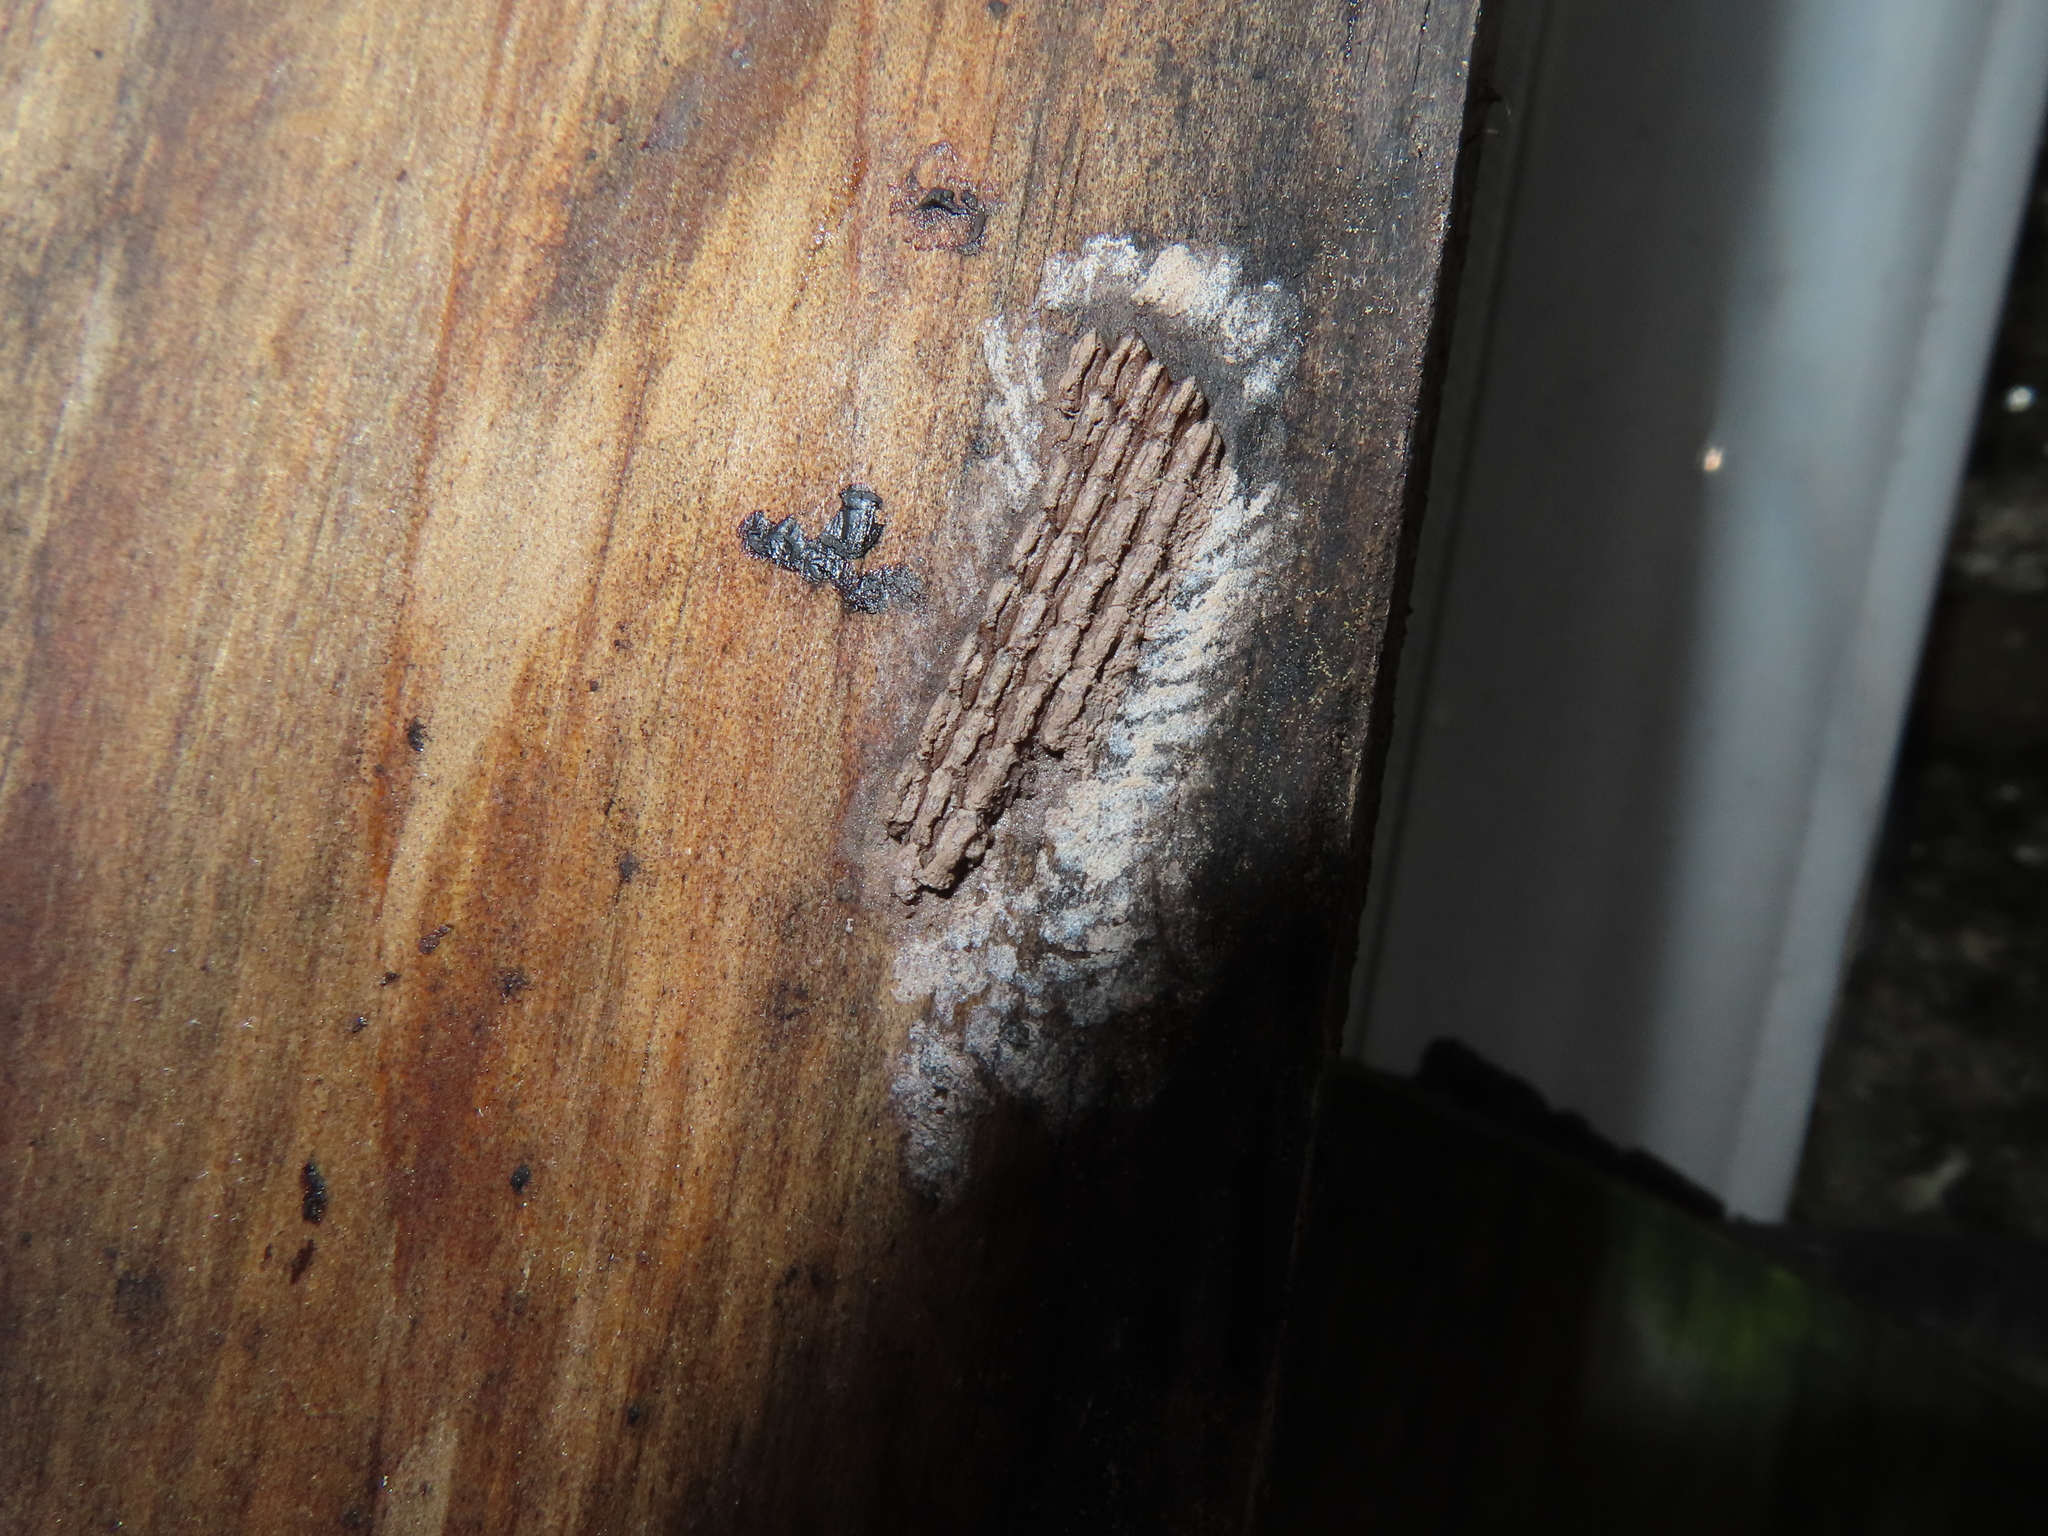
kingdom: Animalia
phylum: Arthropoda
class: Insecta
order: Hemiptera
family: Fulgoridae
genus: Lycorma
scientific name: Lycorma delicatula
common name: Spotted lanternfly
